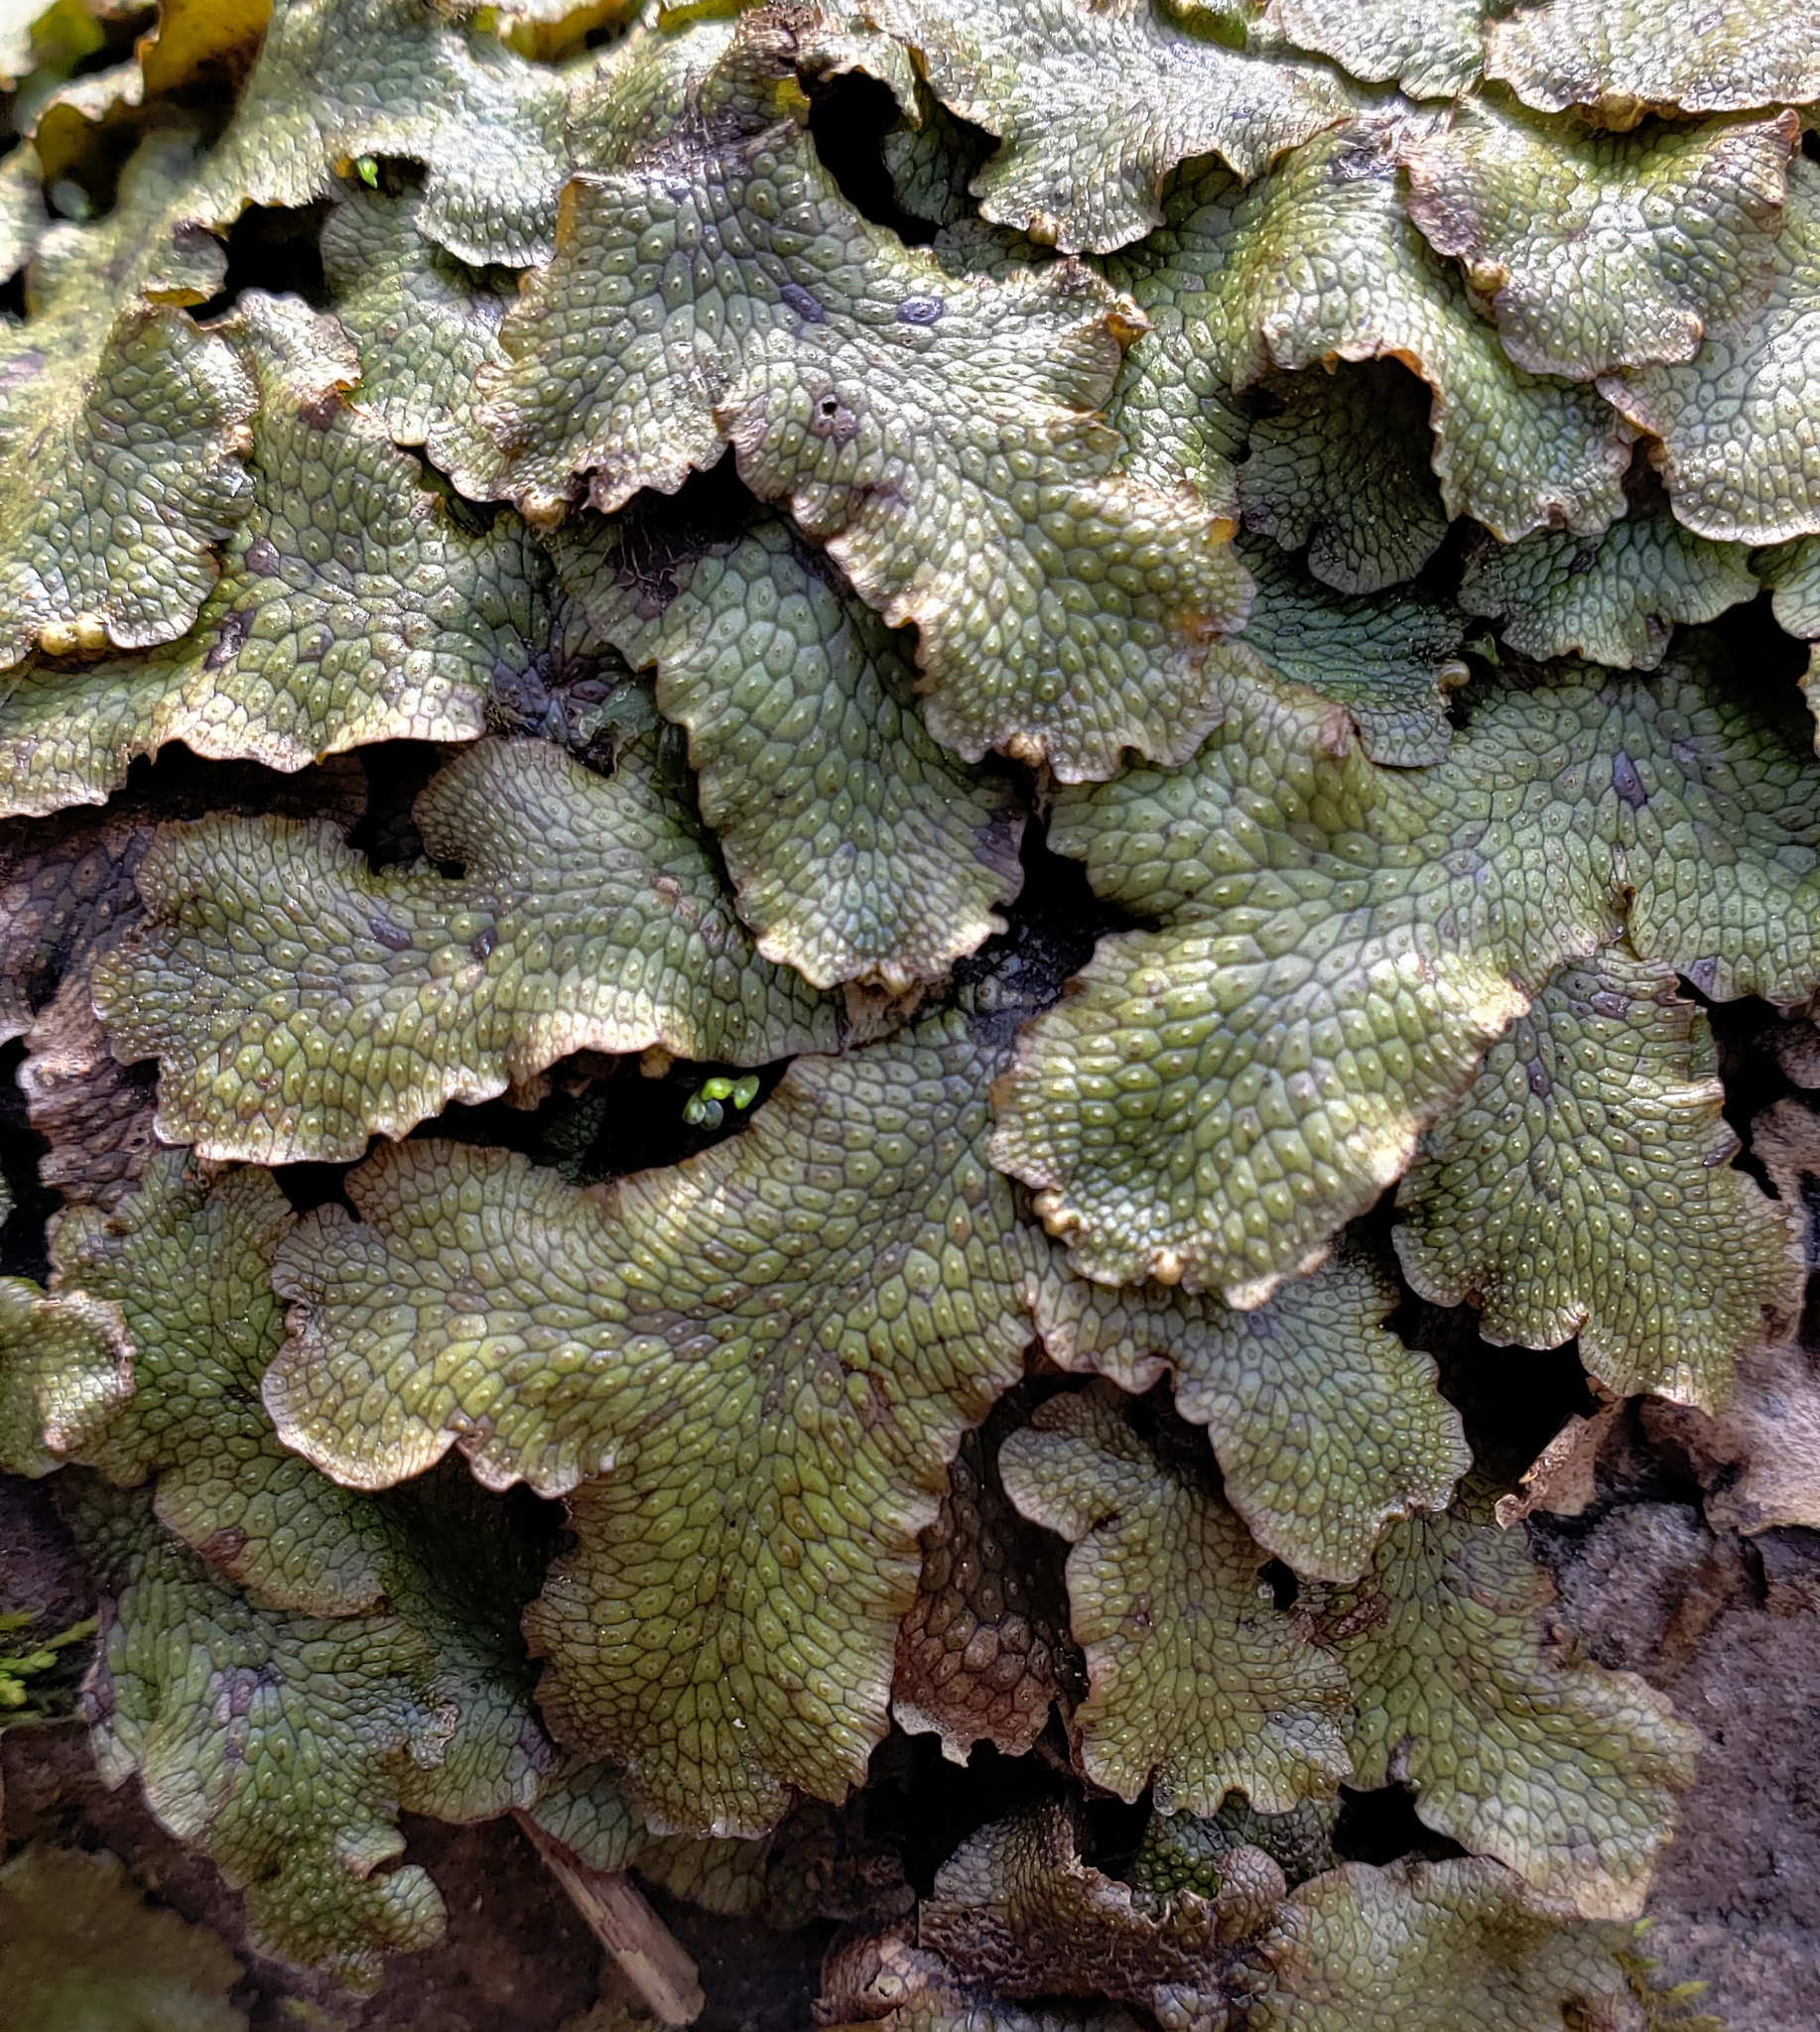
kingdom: Plantae
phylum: Marchantiophyta
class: Marchantiopsida
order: Marchantiales
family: Conocephalaceae
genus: Conocephalum
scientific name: Conocephalum salebrosum
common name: Cat-tongue liverwort
